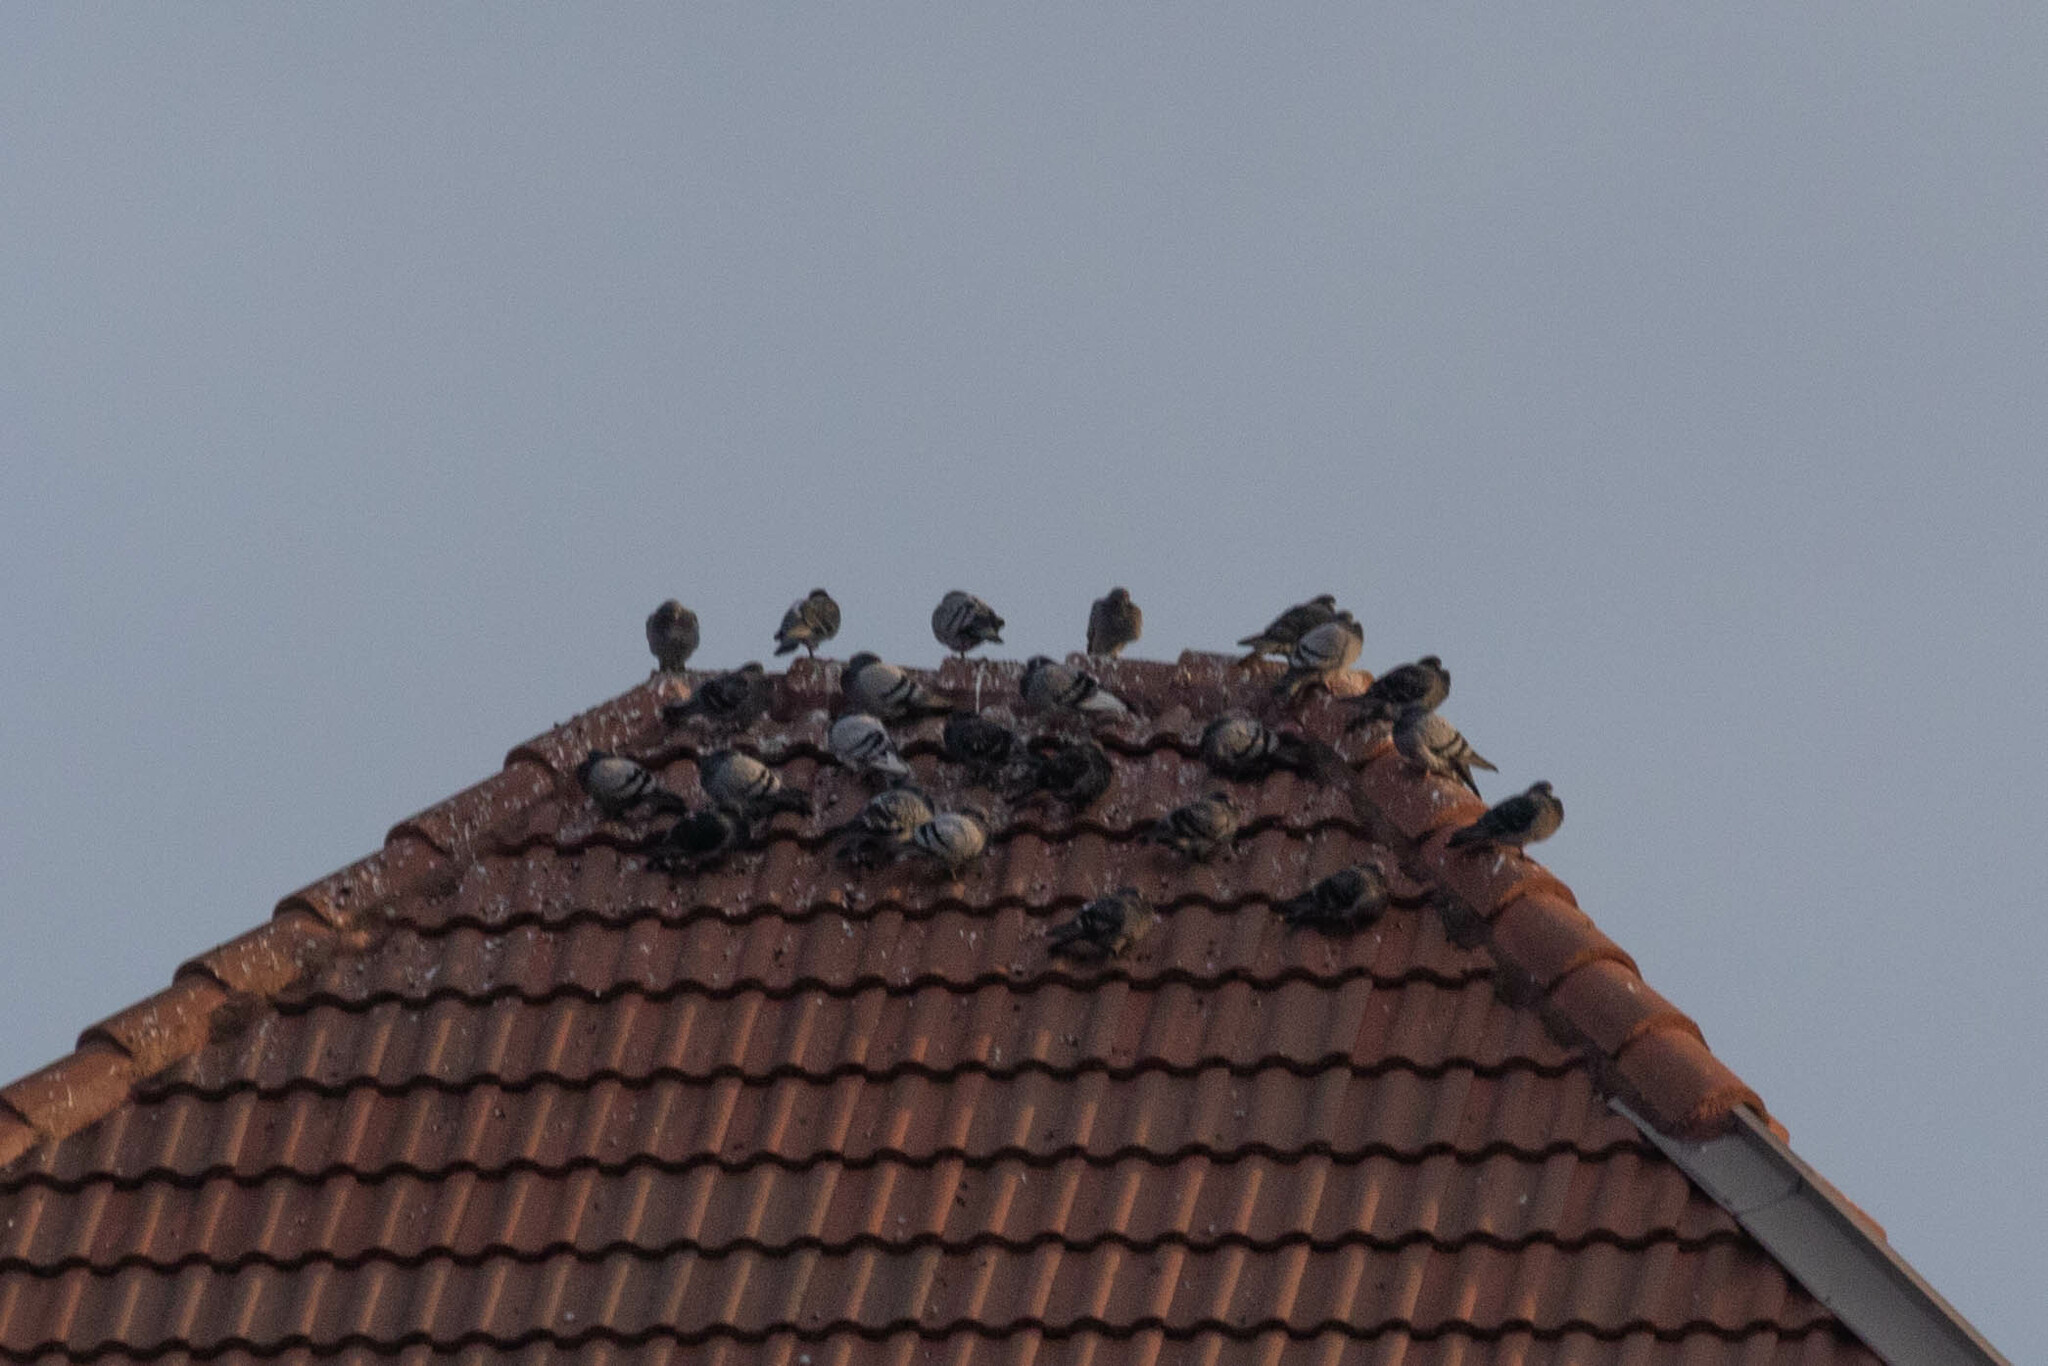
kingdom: Animalia
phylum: Chordata
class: Aves
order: Columbiformes
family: Columbidae
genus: Columba
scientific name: Columba livia
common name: Rock pigeon
